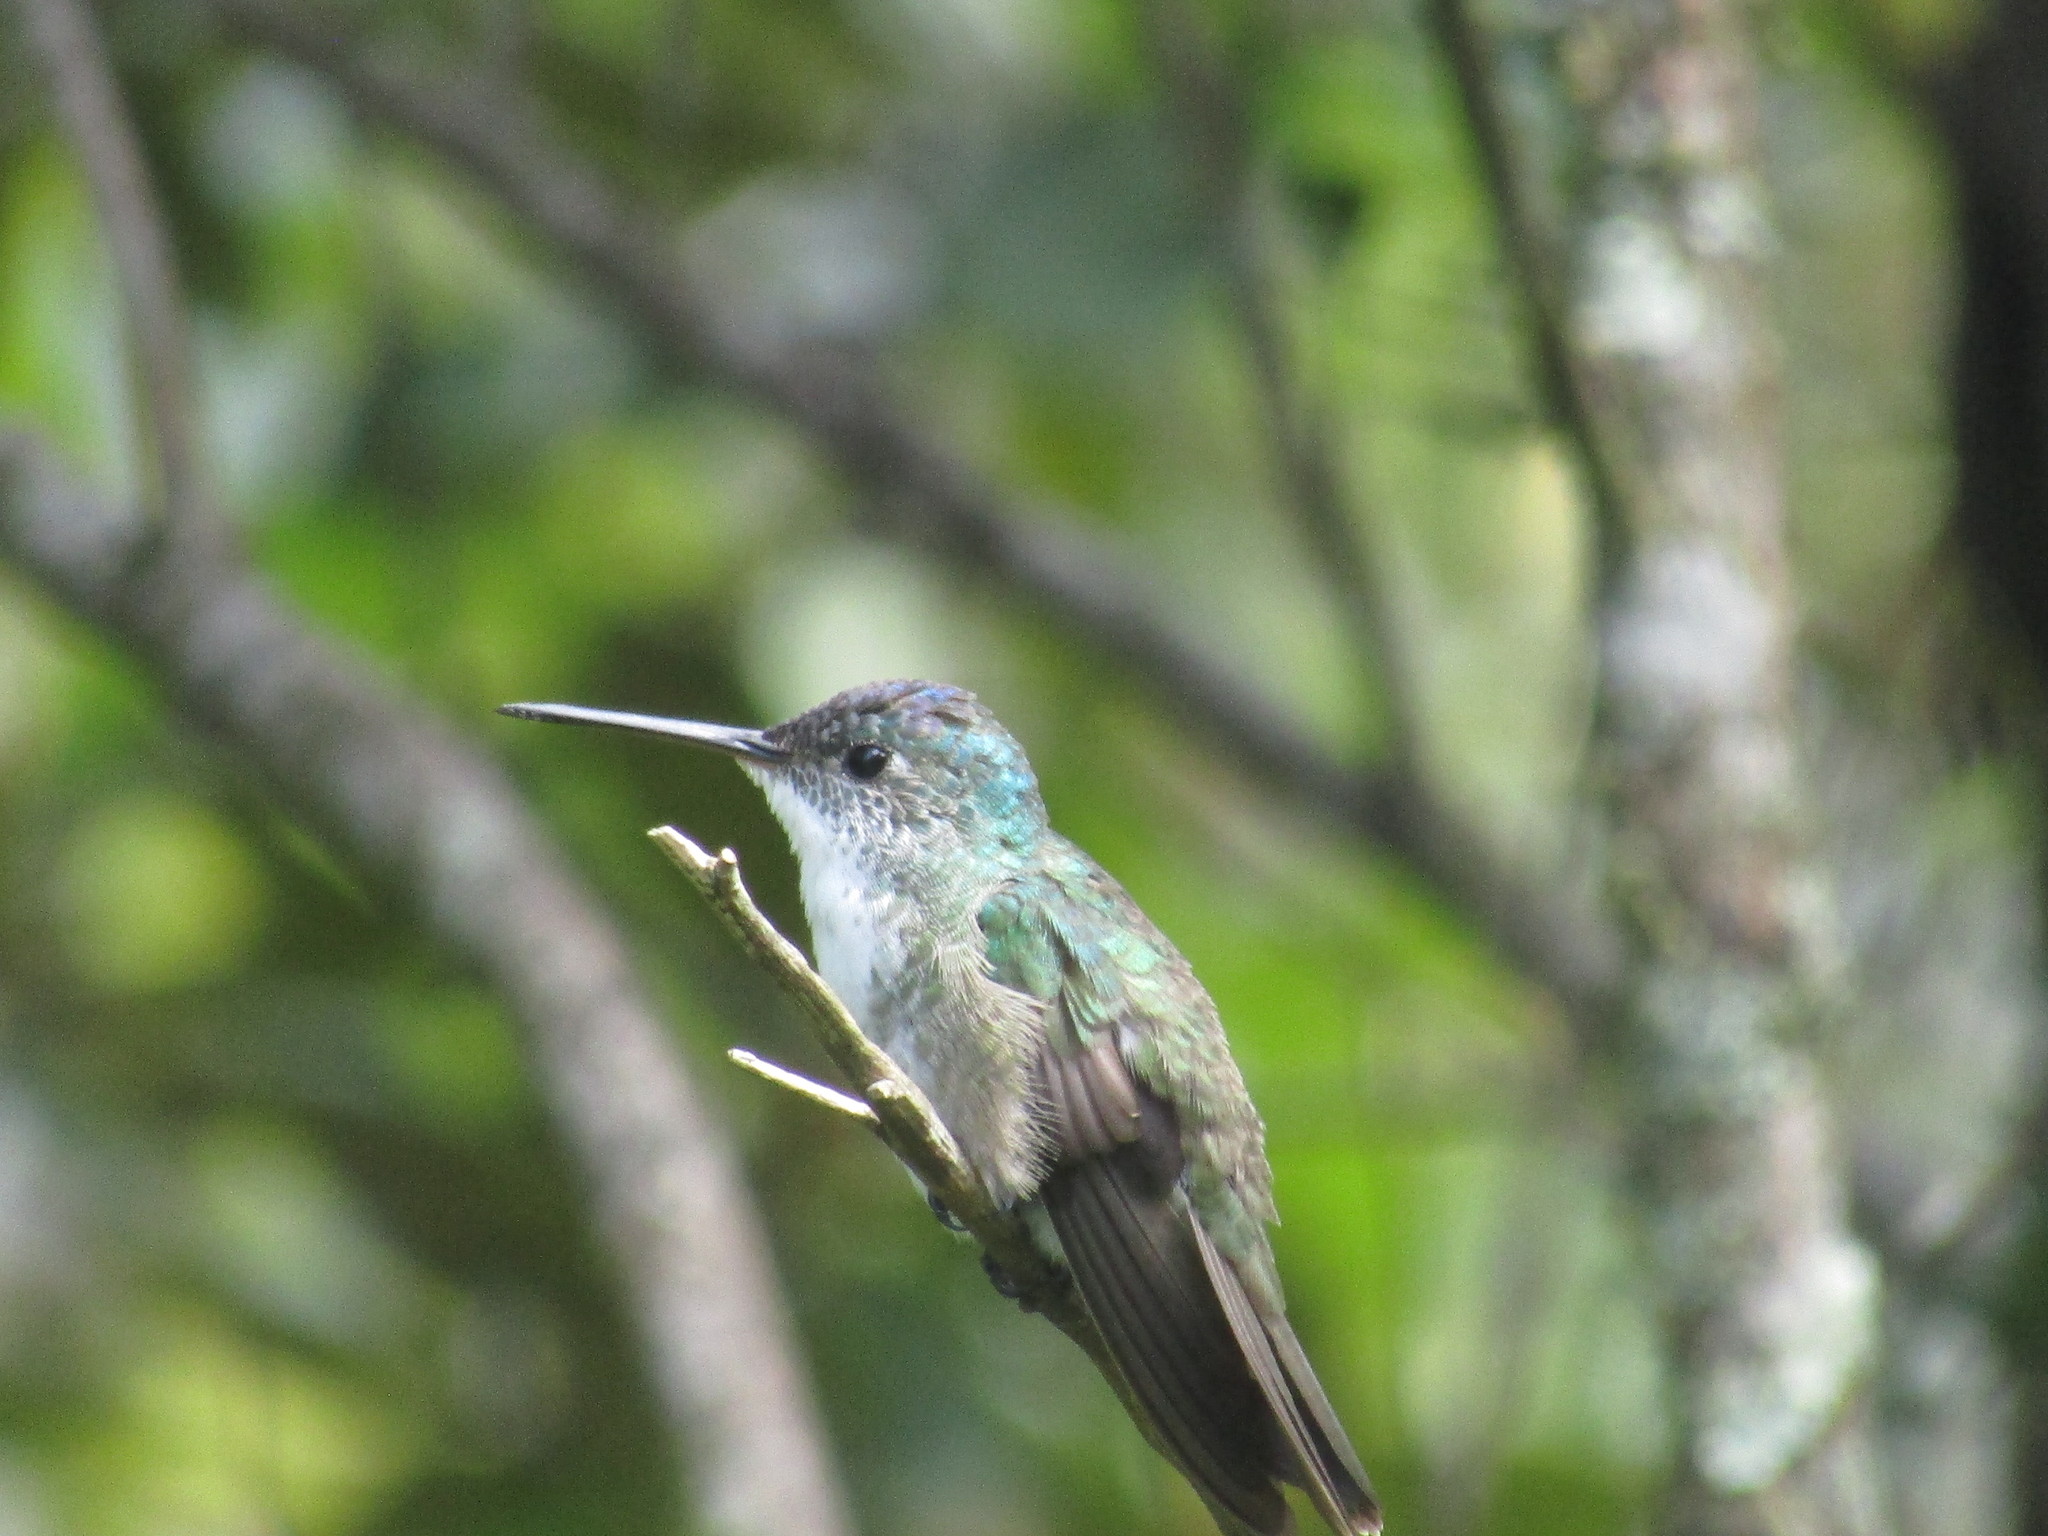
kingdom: Animalia
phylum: Chordata
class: Aves
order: Apodiformes
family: Trochilidae
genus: Saucerottia
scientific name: Saucerottia cyanocephala
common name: Azure-crowned hummingbird
